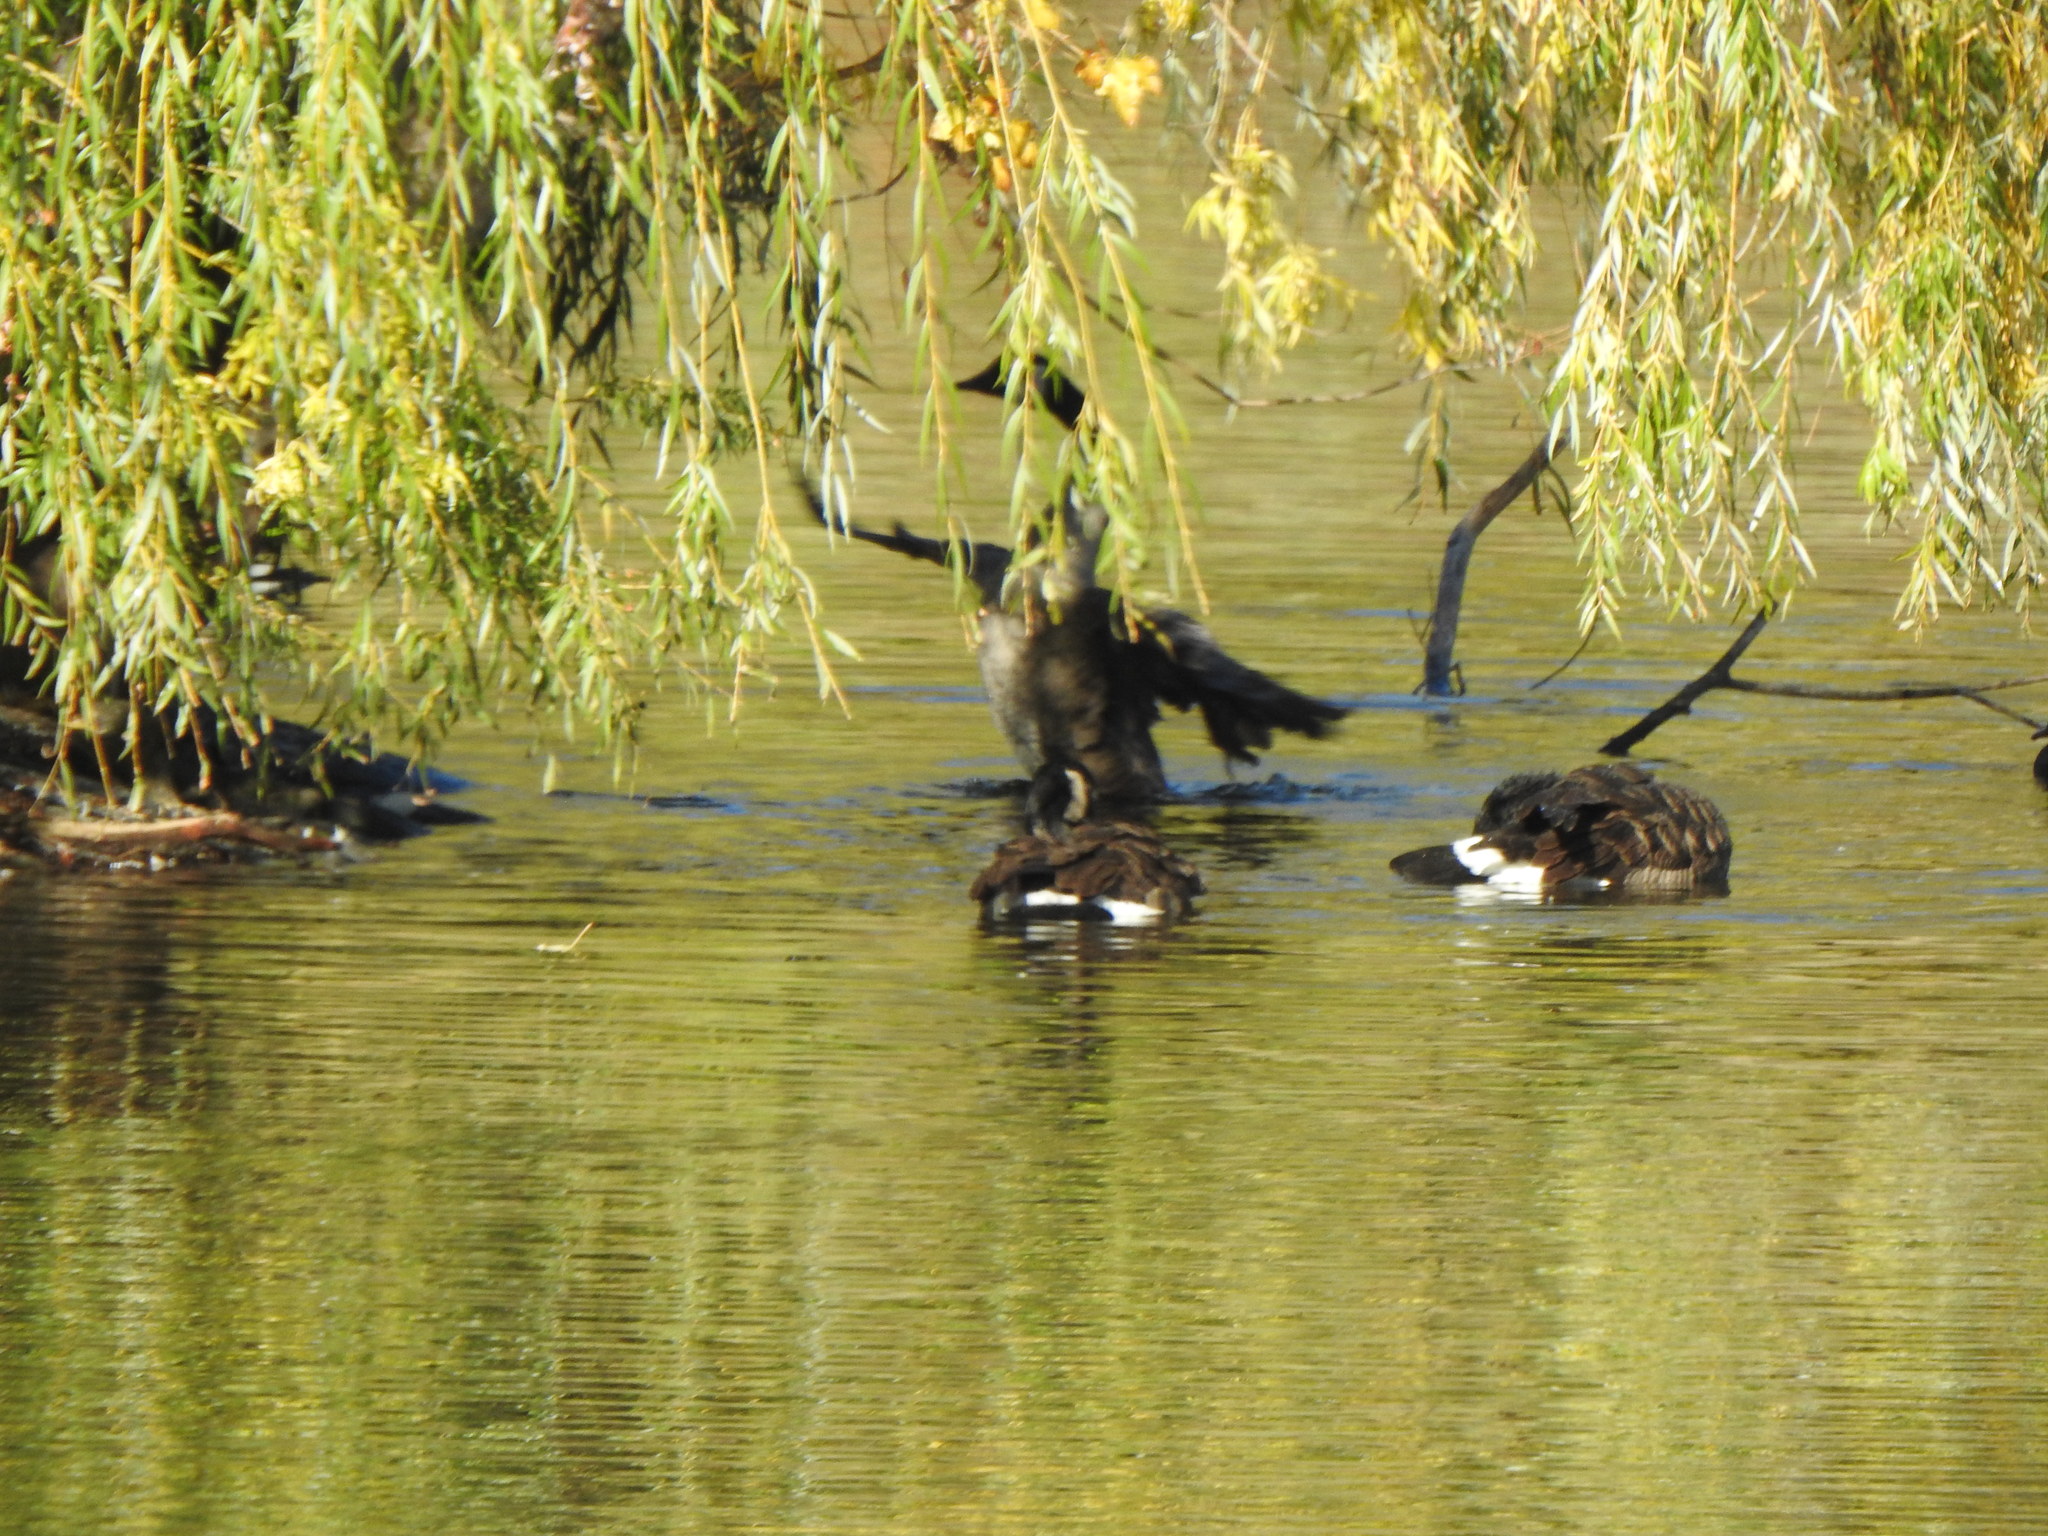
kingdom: Animalia
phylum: Chordata
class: Aves
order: Anseriformes
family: Anatidae
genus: Branta
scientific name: Branta canadensis
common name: Canada goose
